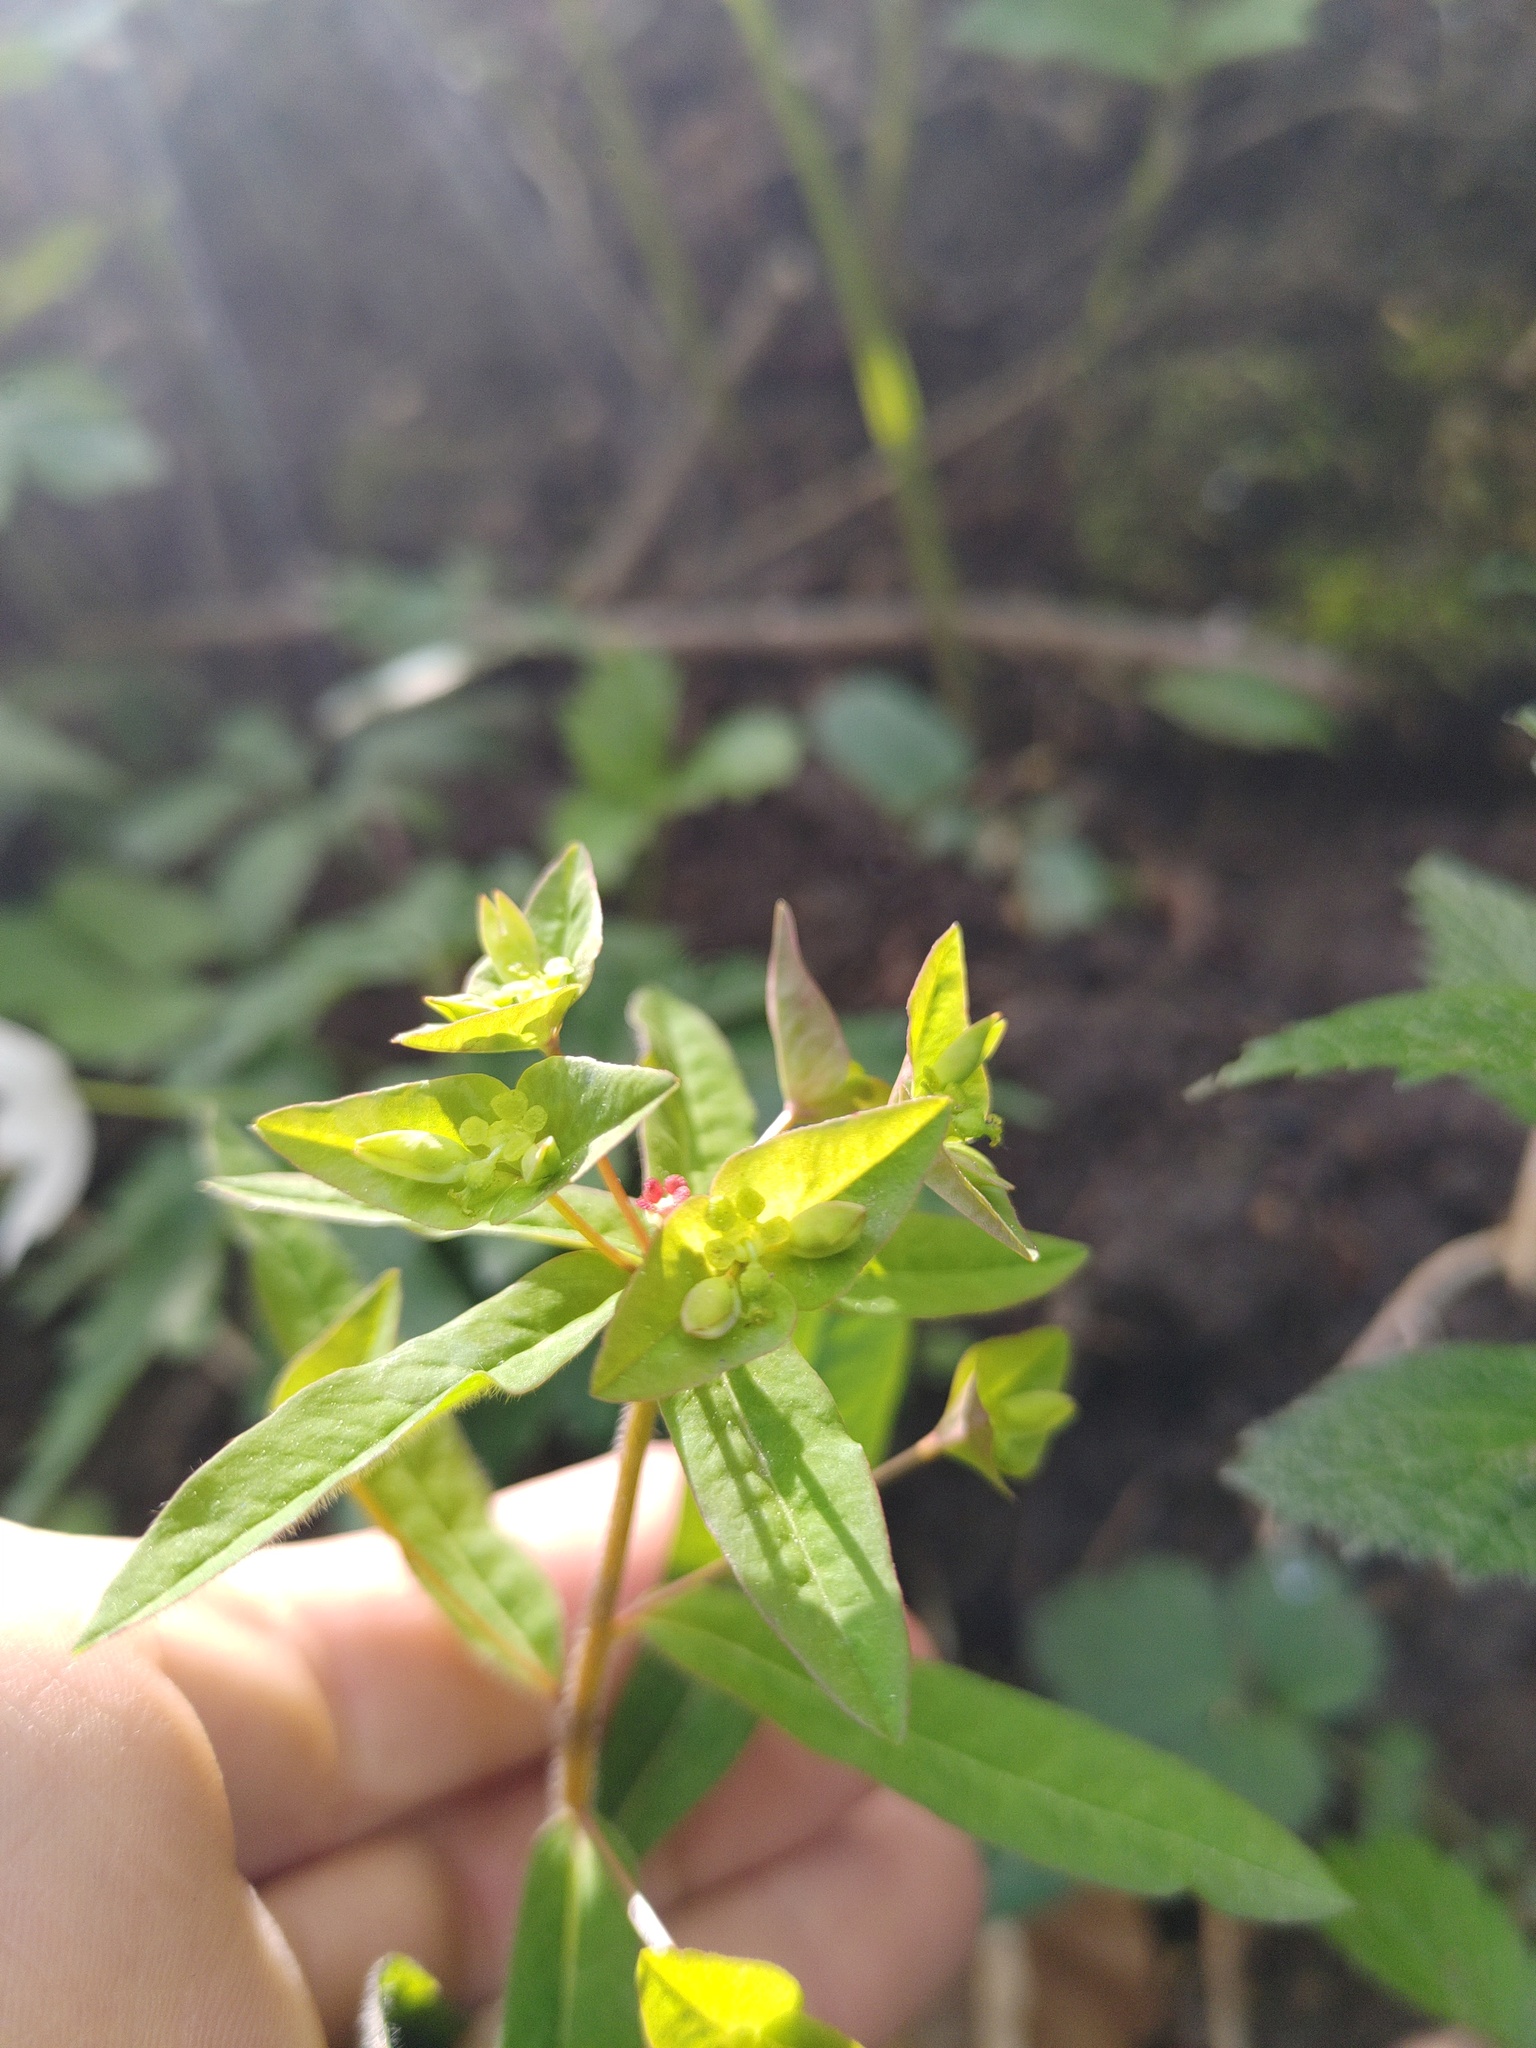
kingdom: Plantae
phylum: Tracheophyta
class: Magnoliopsida
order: Malpighiales
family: Euphorbiaceae
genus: Euphorbia
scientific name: Euphorbia dulcis
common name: Sweet spurge
